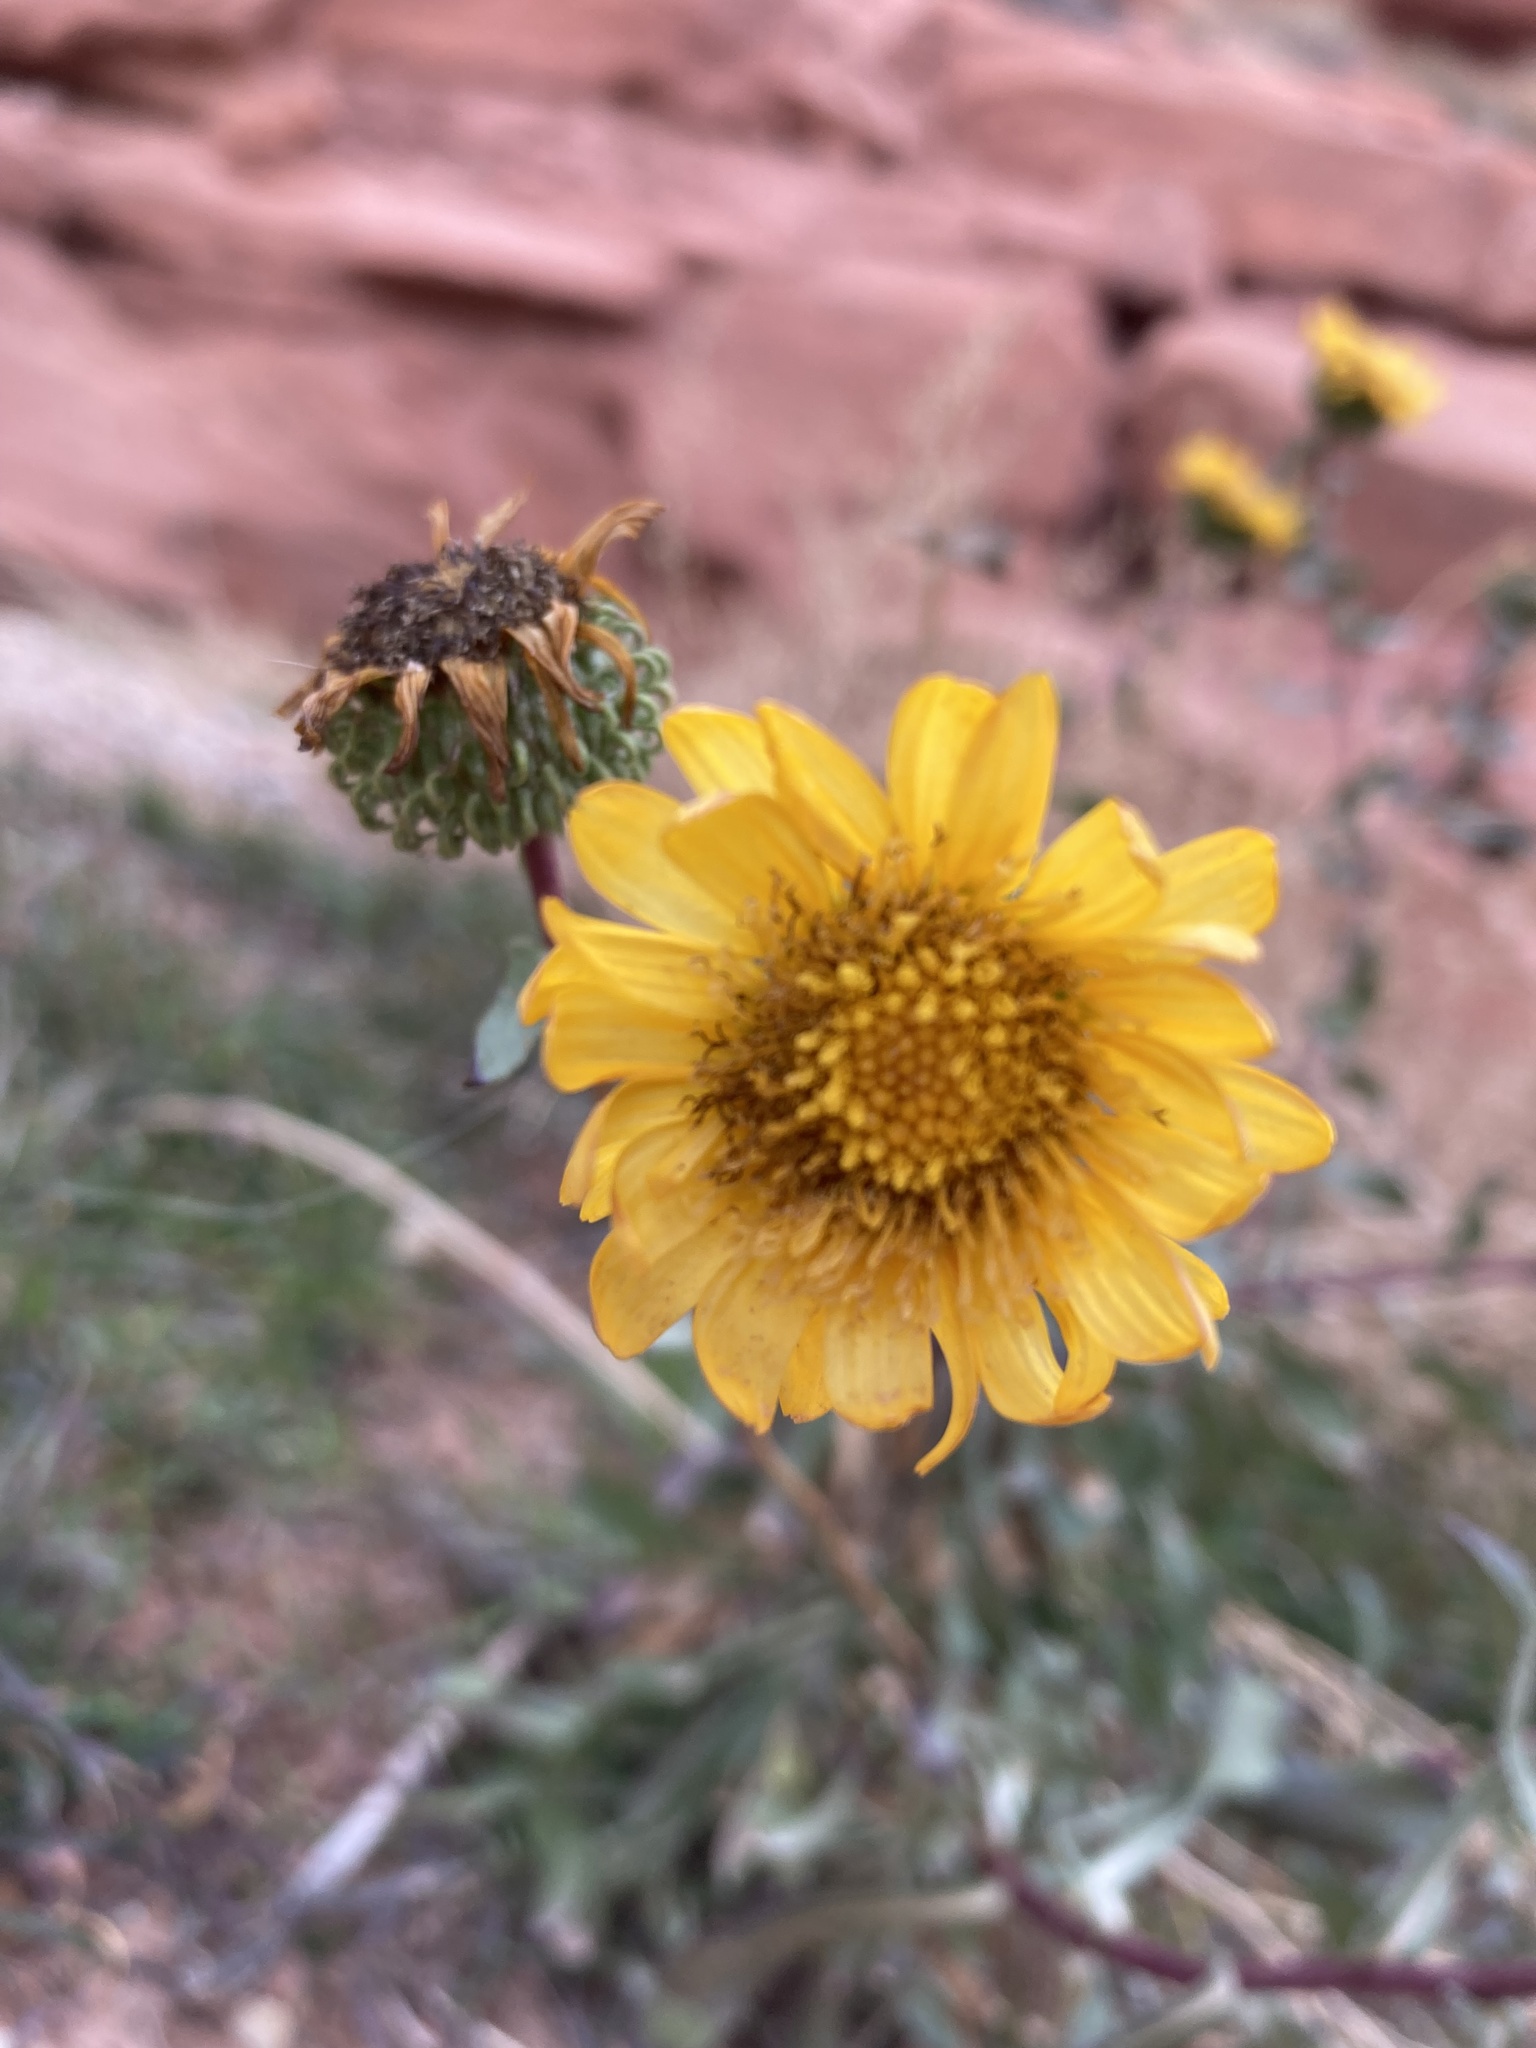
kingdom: Plantae
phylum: Tracheophyta
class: Magnoliopsida
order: Asterales
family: Asteraceae
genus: Grindelia
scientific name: Grindelia squarrosa
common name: Curly-cup gumweed
